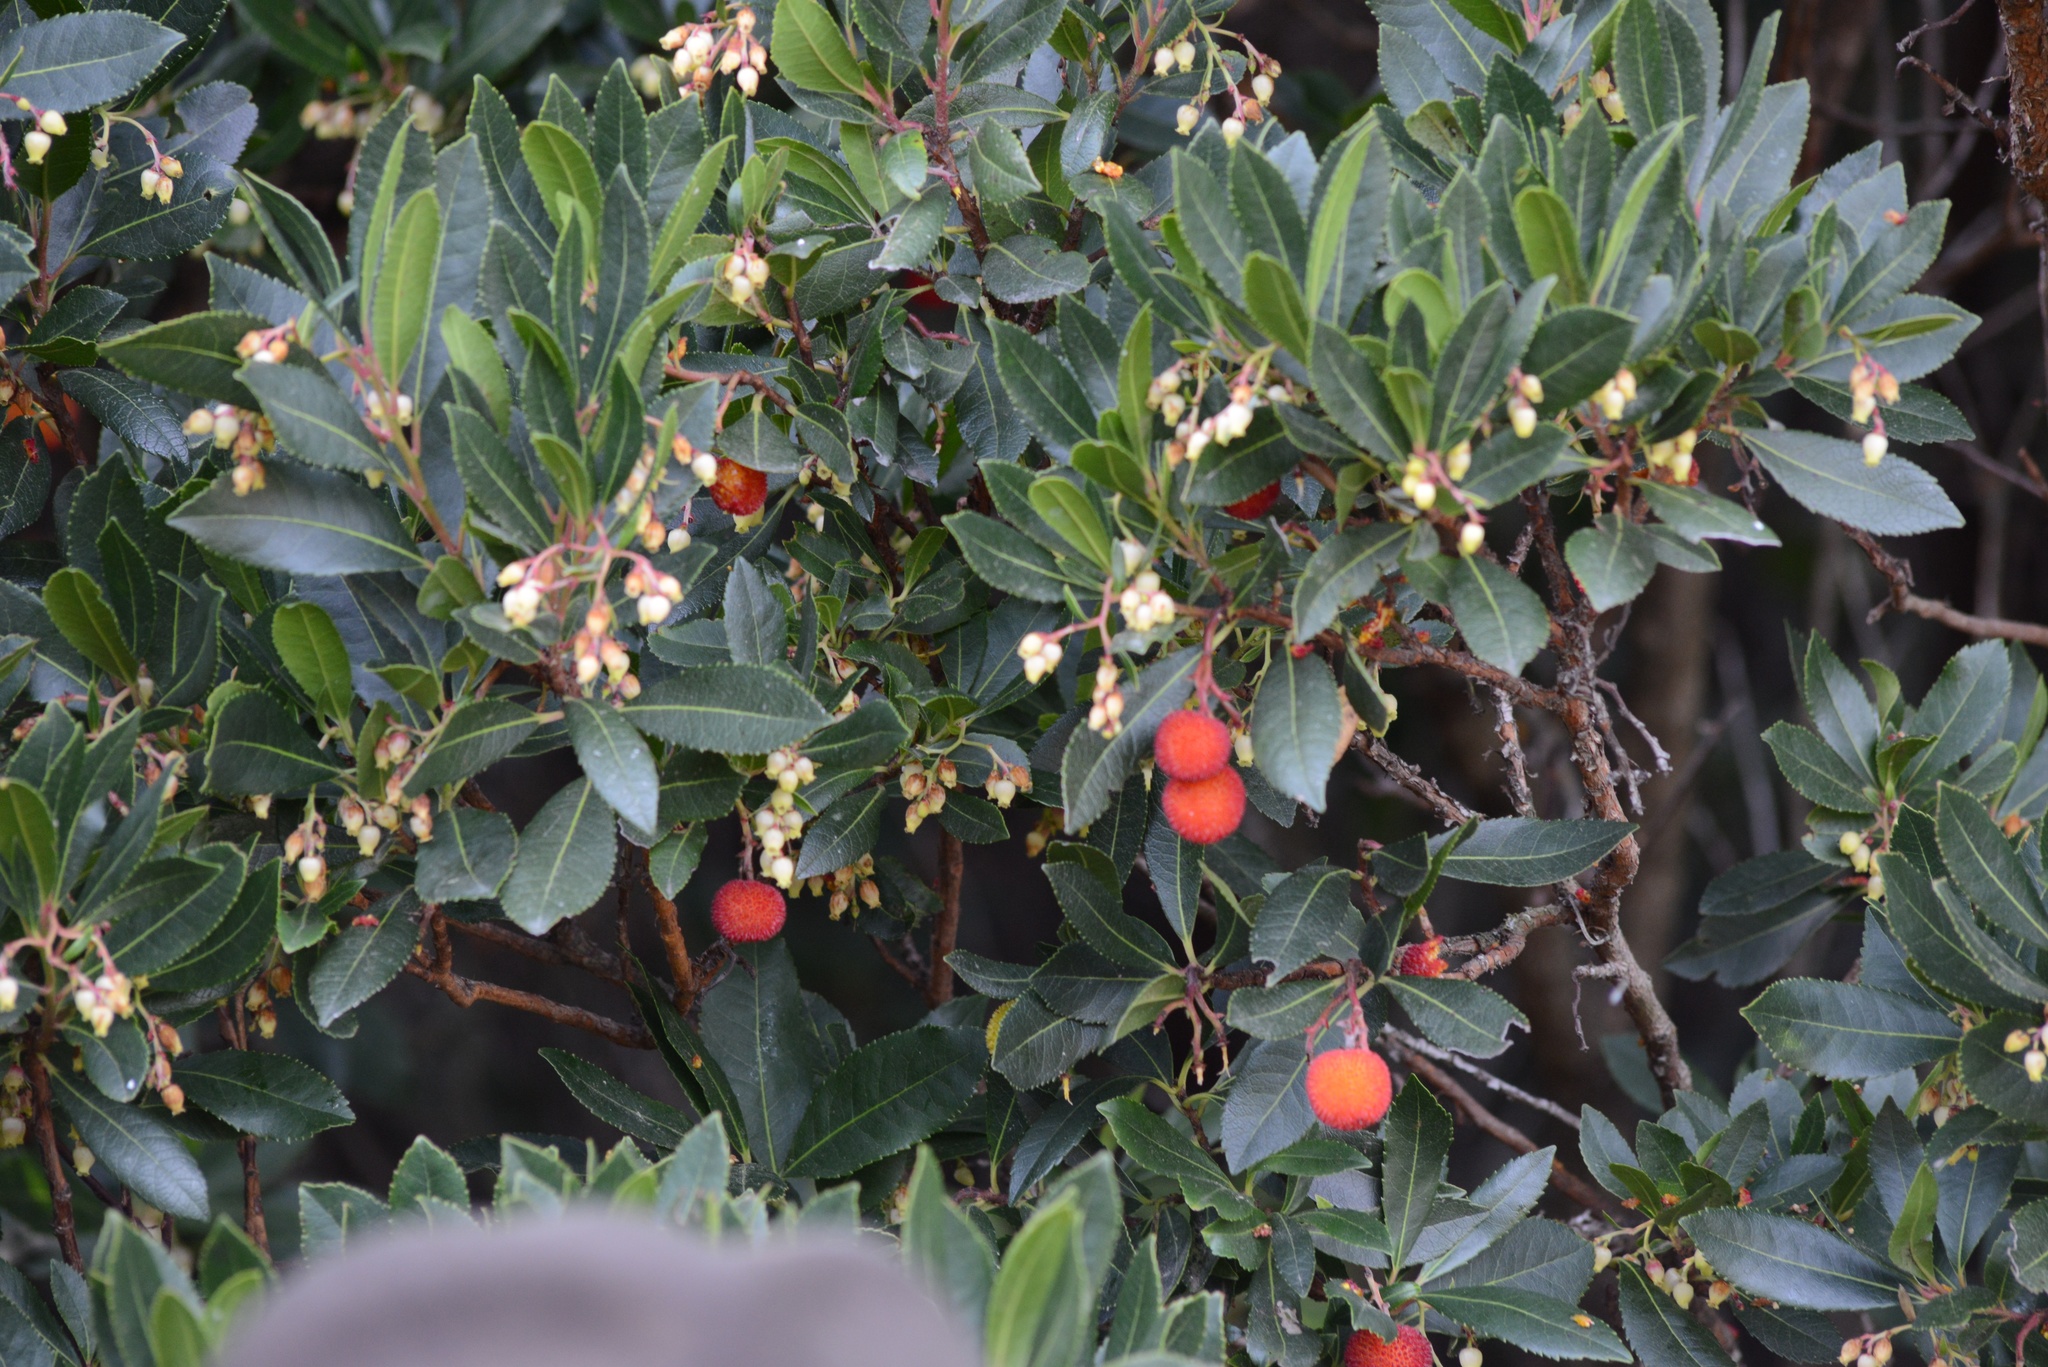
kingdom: Plantae
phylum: Tracheophyta
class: Magnoliopsida
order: Ericales
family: Ericaceae
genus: Arbutus
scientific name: Arbutus unedo
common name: Strawberry-tree
